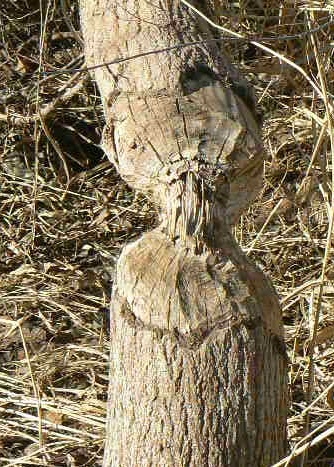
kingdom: Animalia
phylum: Chordata
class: Mammalia
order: Rodentia
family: Castoridae
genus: Castor
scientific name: Castor canadensis
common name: American beaver
